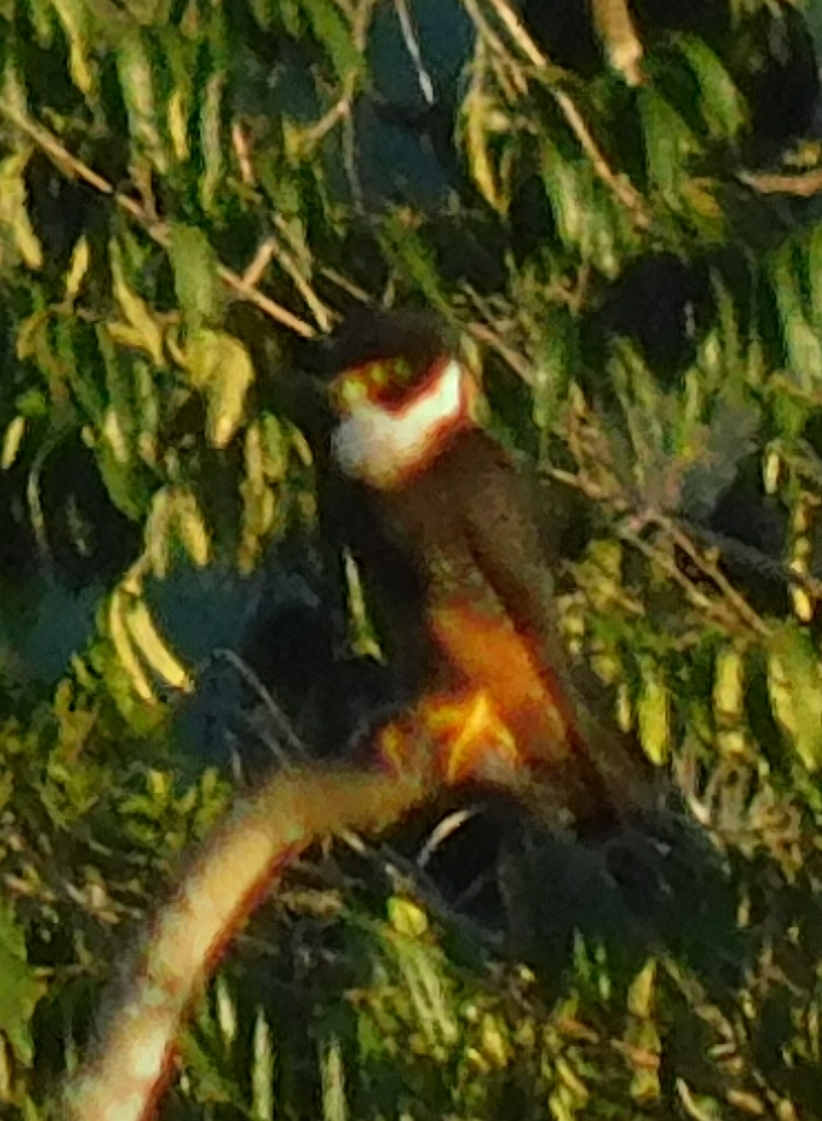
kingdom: Animalia
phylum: Chordata
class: Aves
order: Falconiformes
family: Falconidae
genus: Falco
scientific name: Falco rufigularis
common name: Bat falcon
